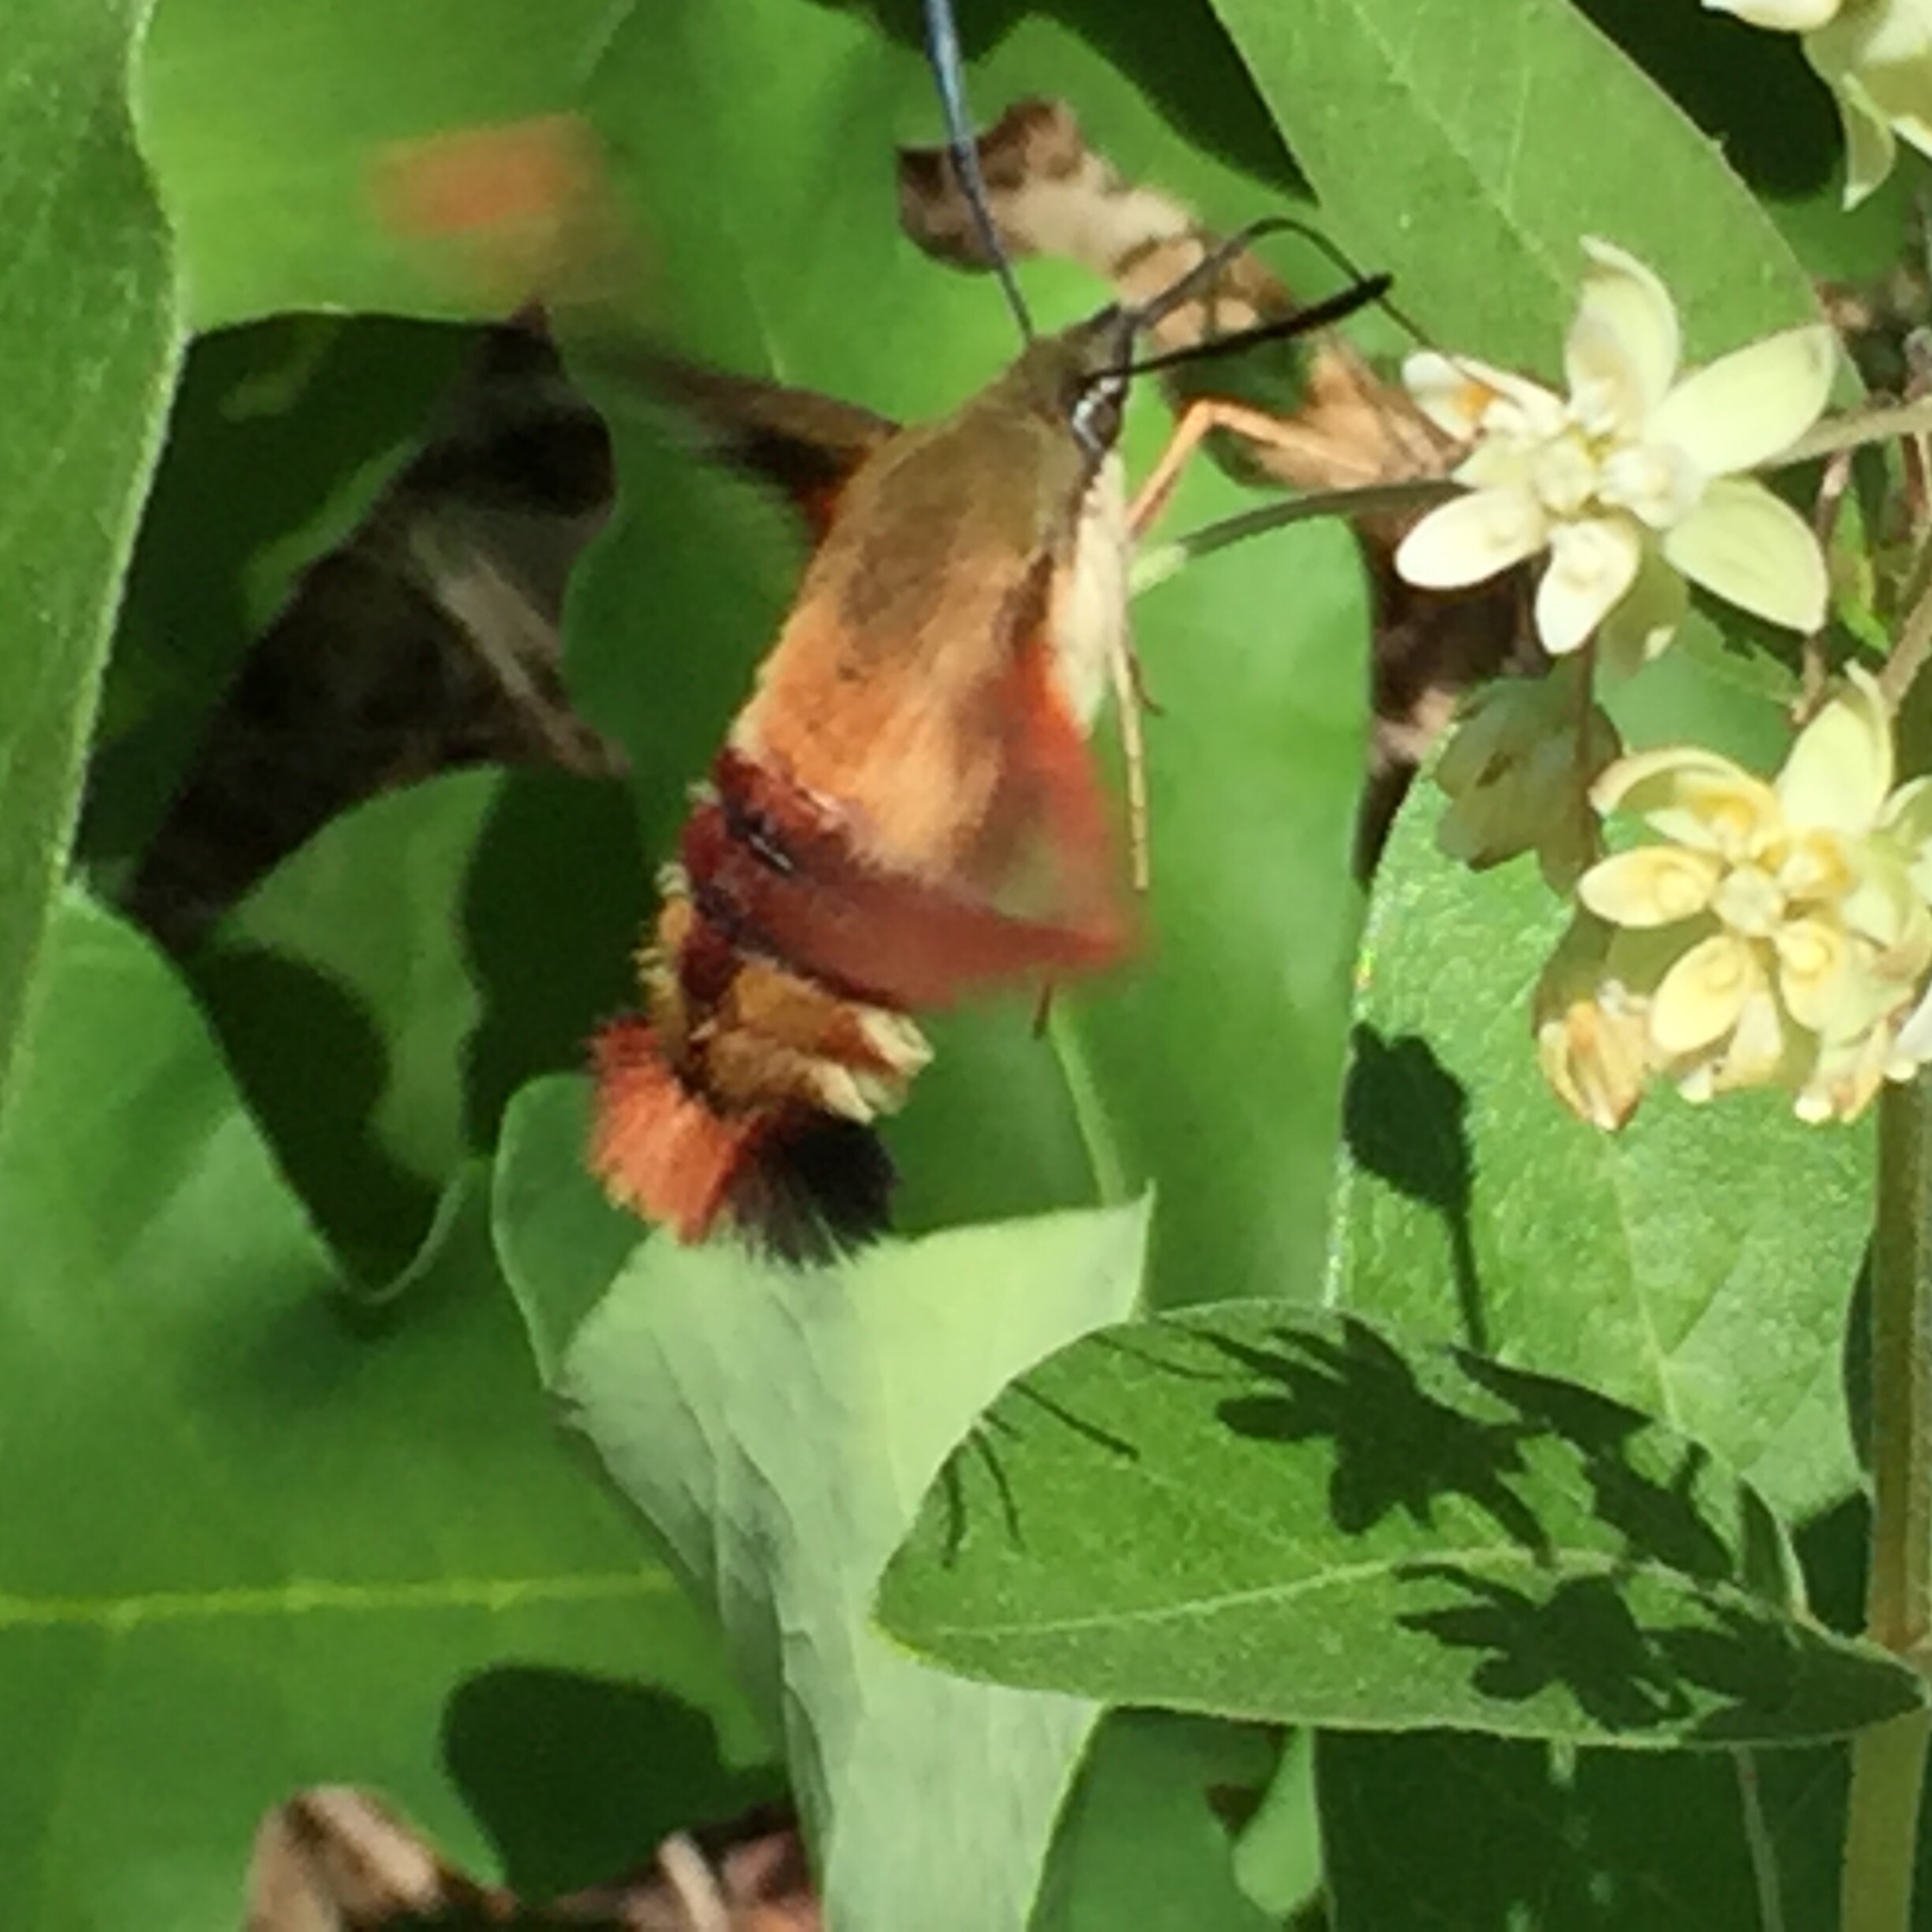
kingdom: Animalia
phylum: Arthropoda
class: Insecta
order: Lepidoptera
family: Sphingidae
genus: Hemaris
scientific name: Hemaris thysbe
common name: Common clear-wing
